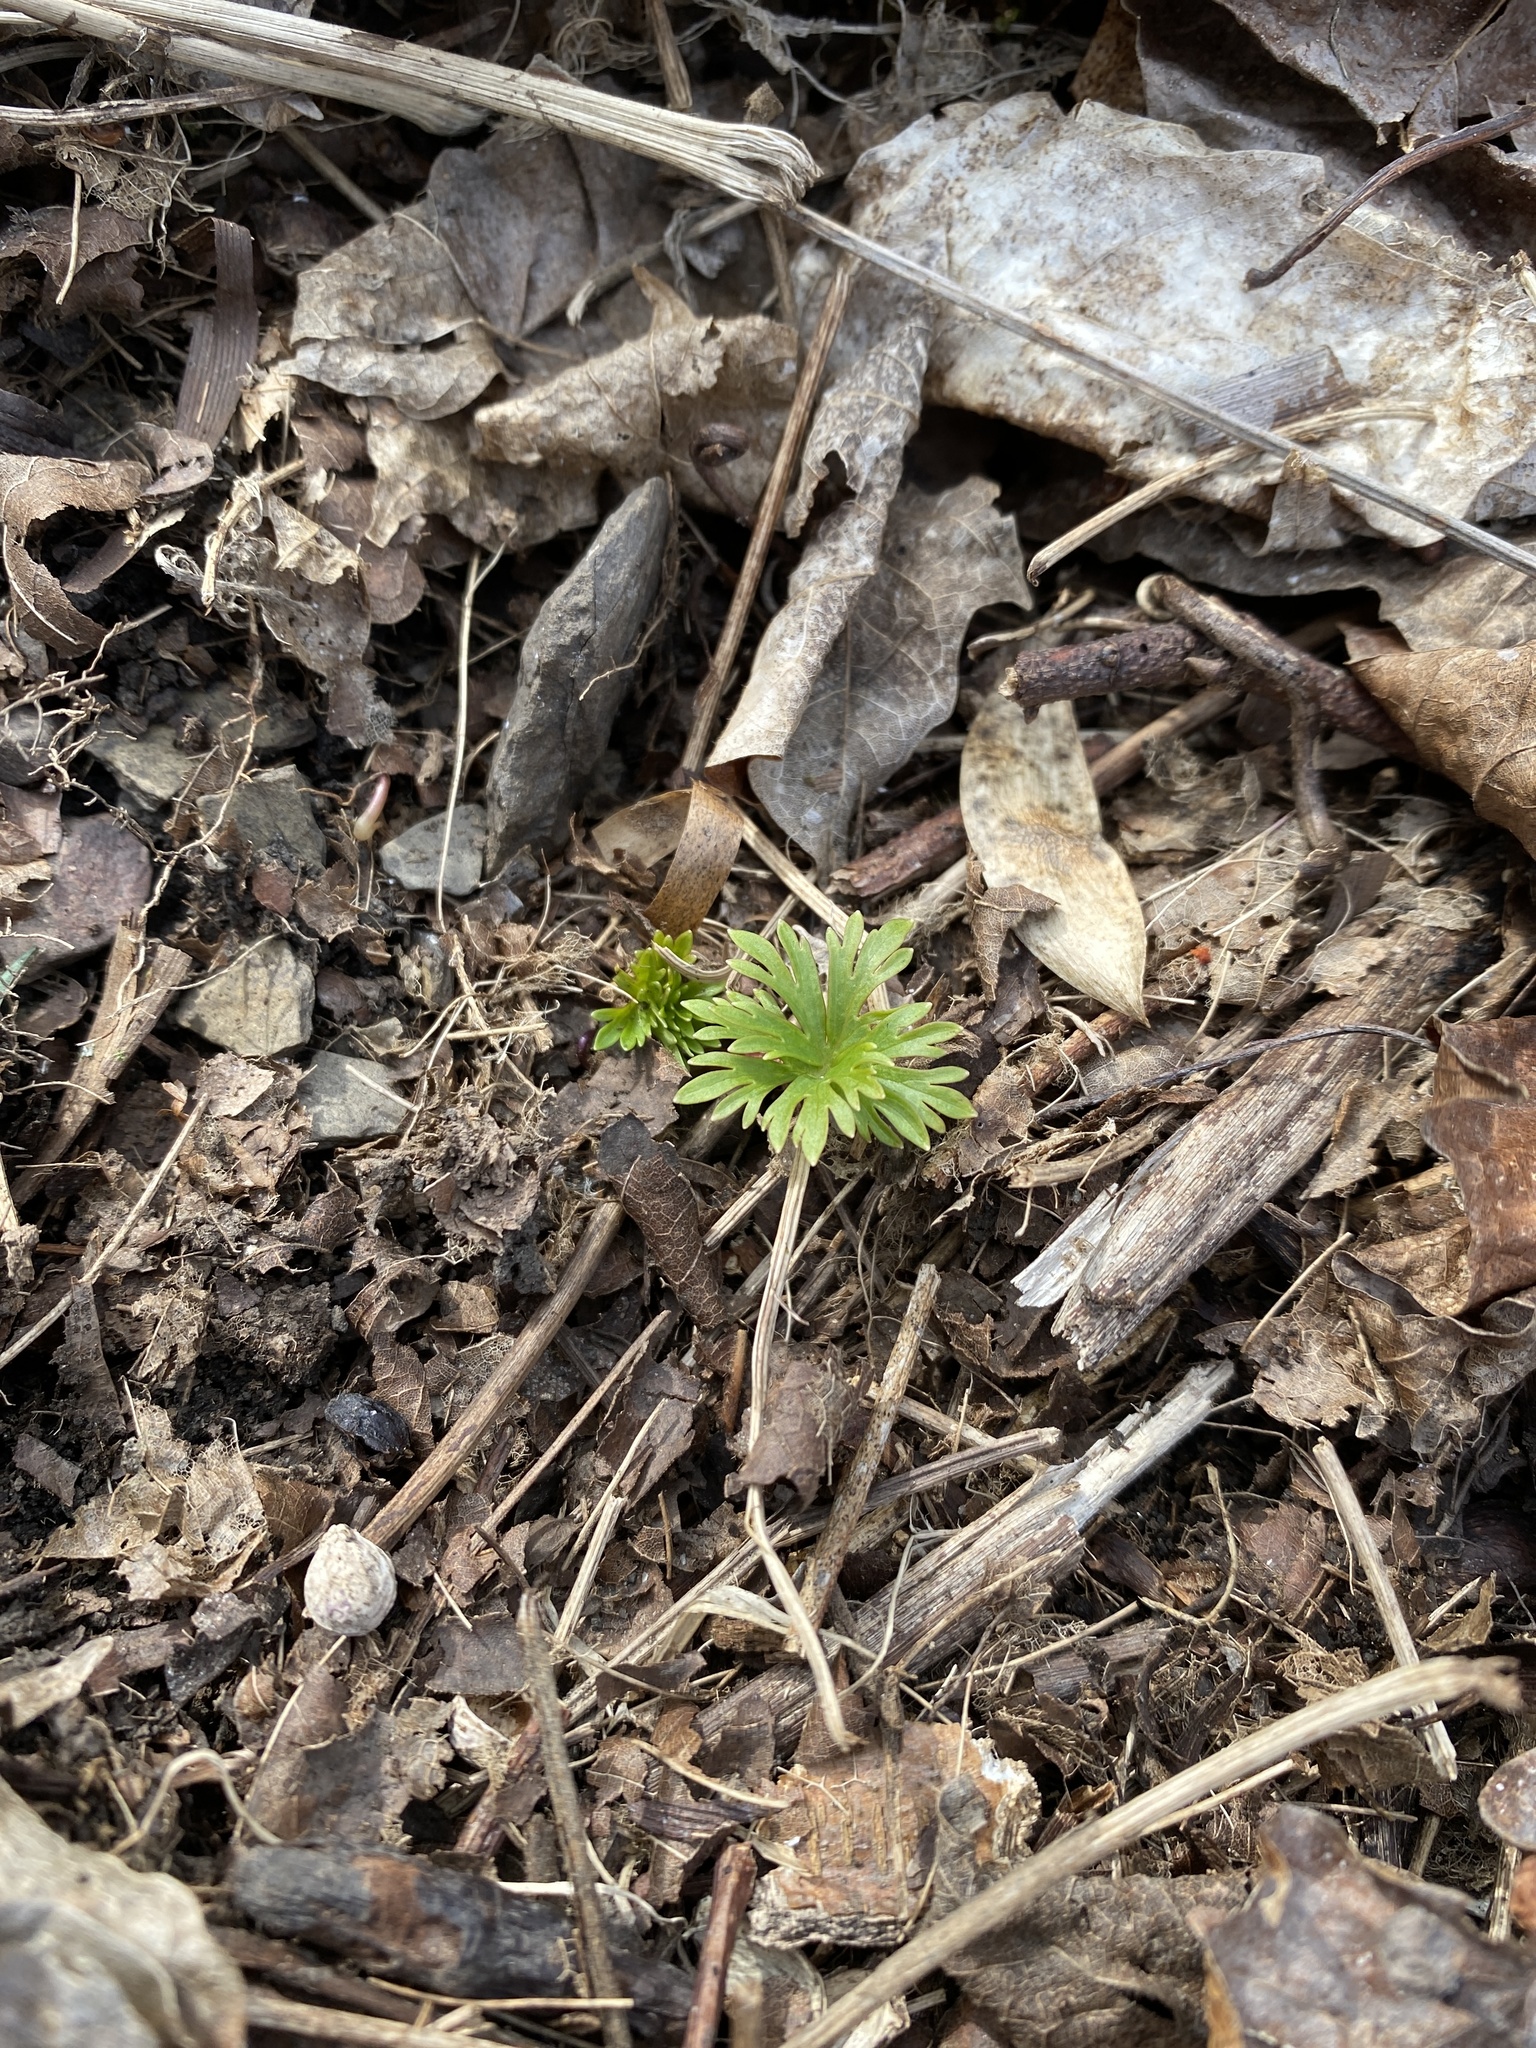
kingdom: Plantae
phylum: Tracheophyta
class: Magnoliopsida
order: Ranunculales
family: Ranunculaceae
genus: Delphinium
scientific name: Delphinium tricorne
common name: Dwarf larkspur
